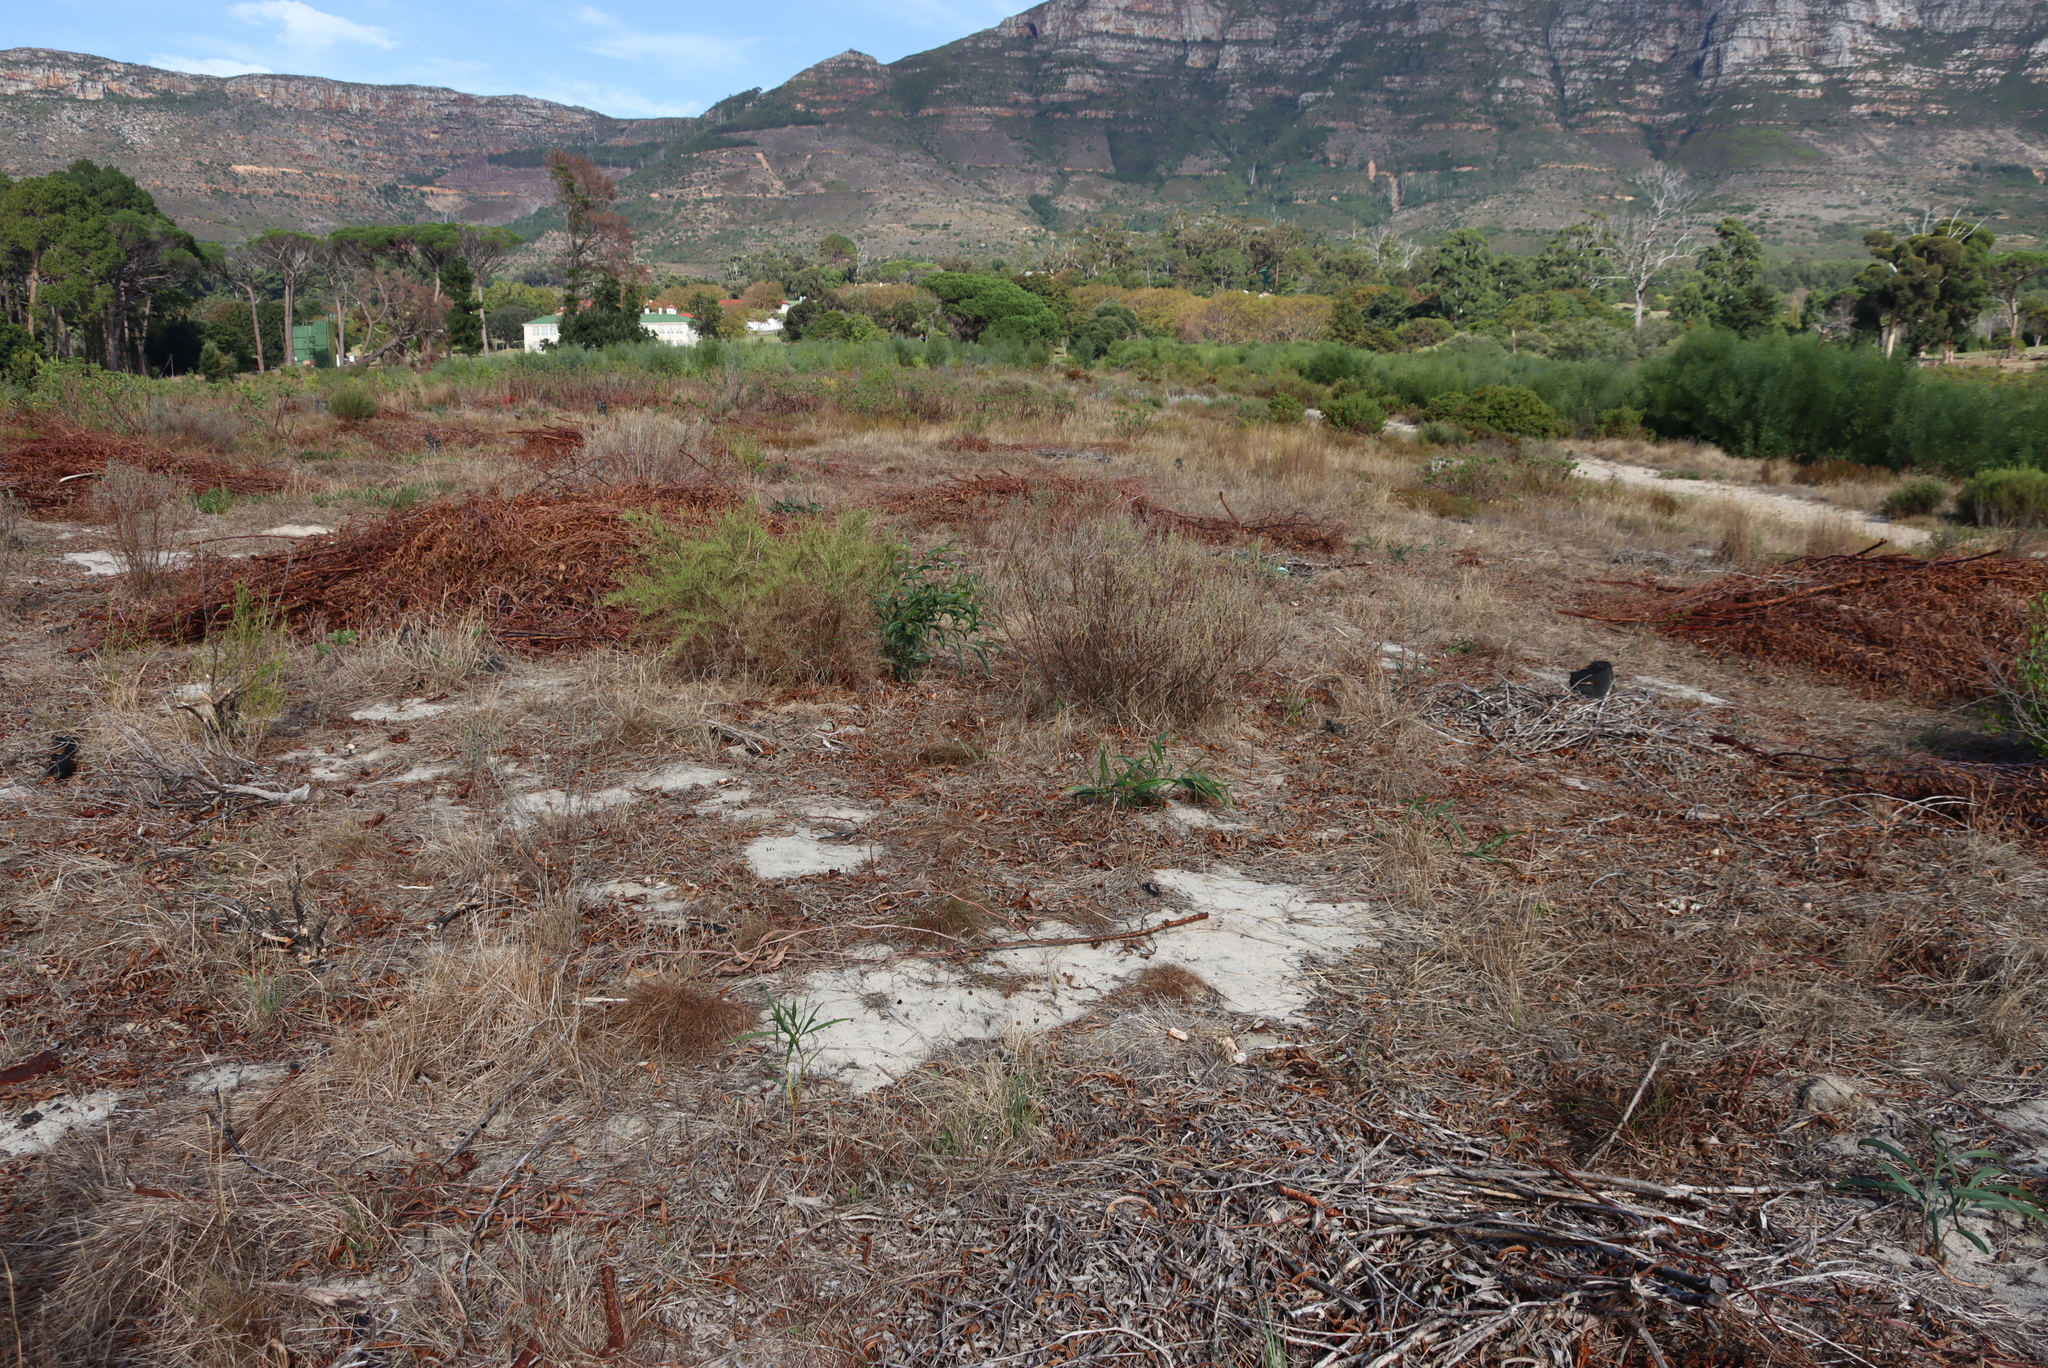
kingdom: Plantae
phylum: Tracheophyta
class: Magnoliopsida
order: Fabales
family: Fabaceae
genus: Acacia
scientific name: Acacia saligna
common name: Orange wattle
